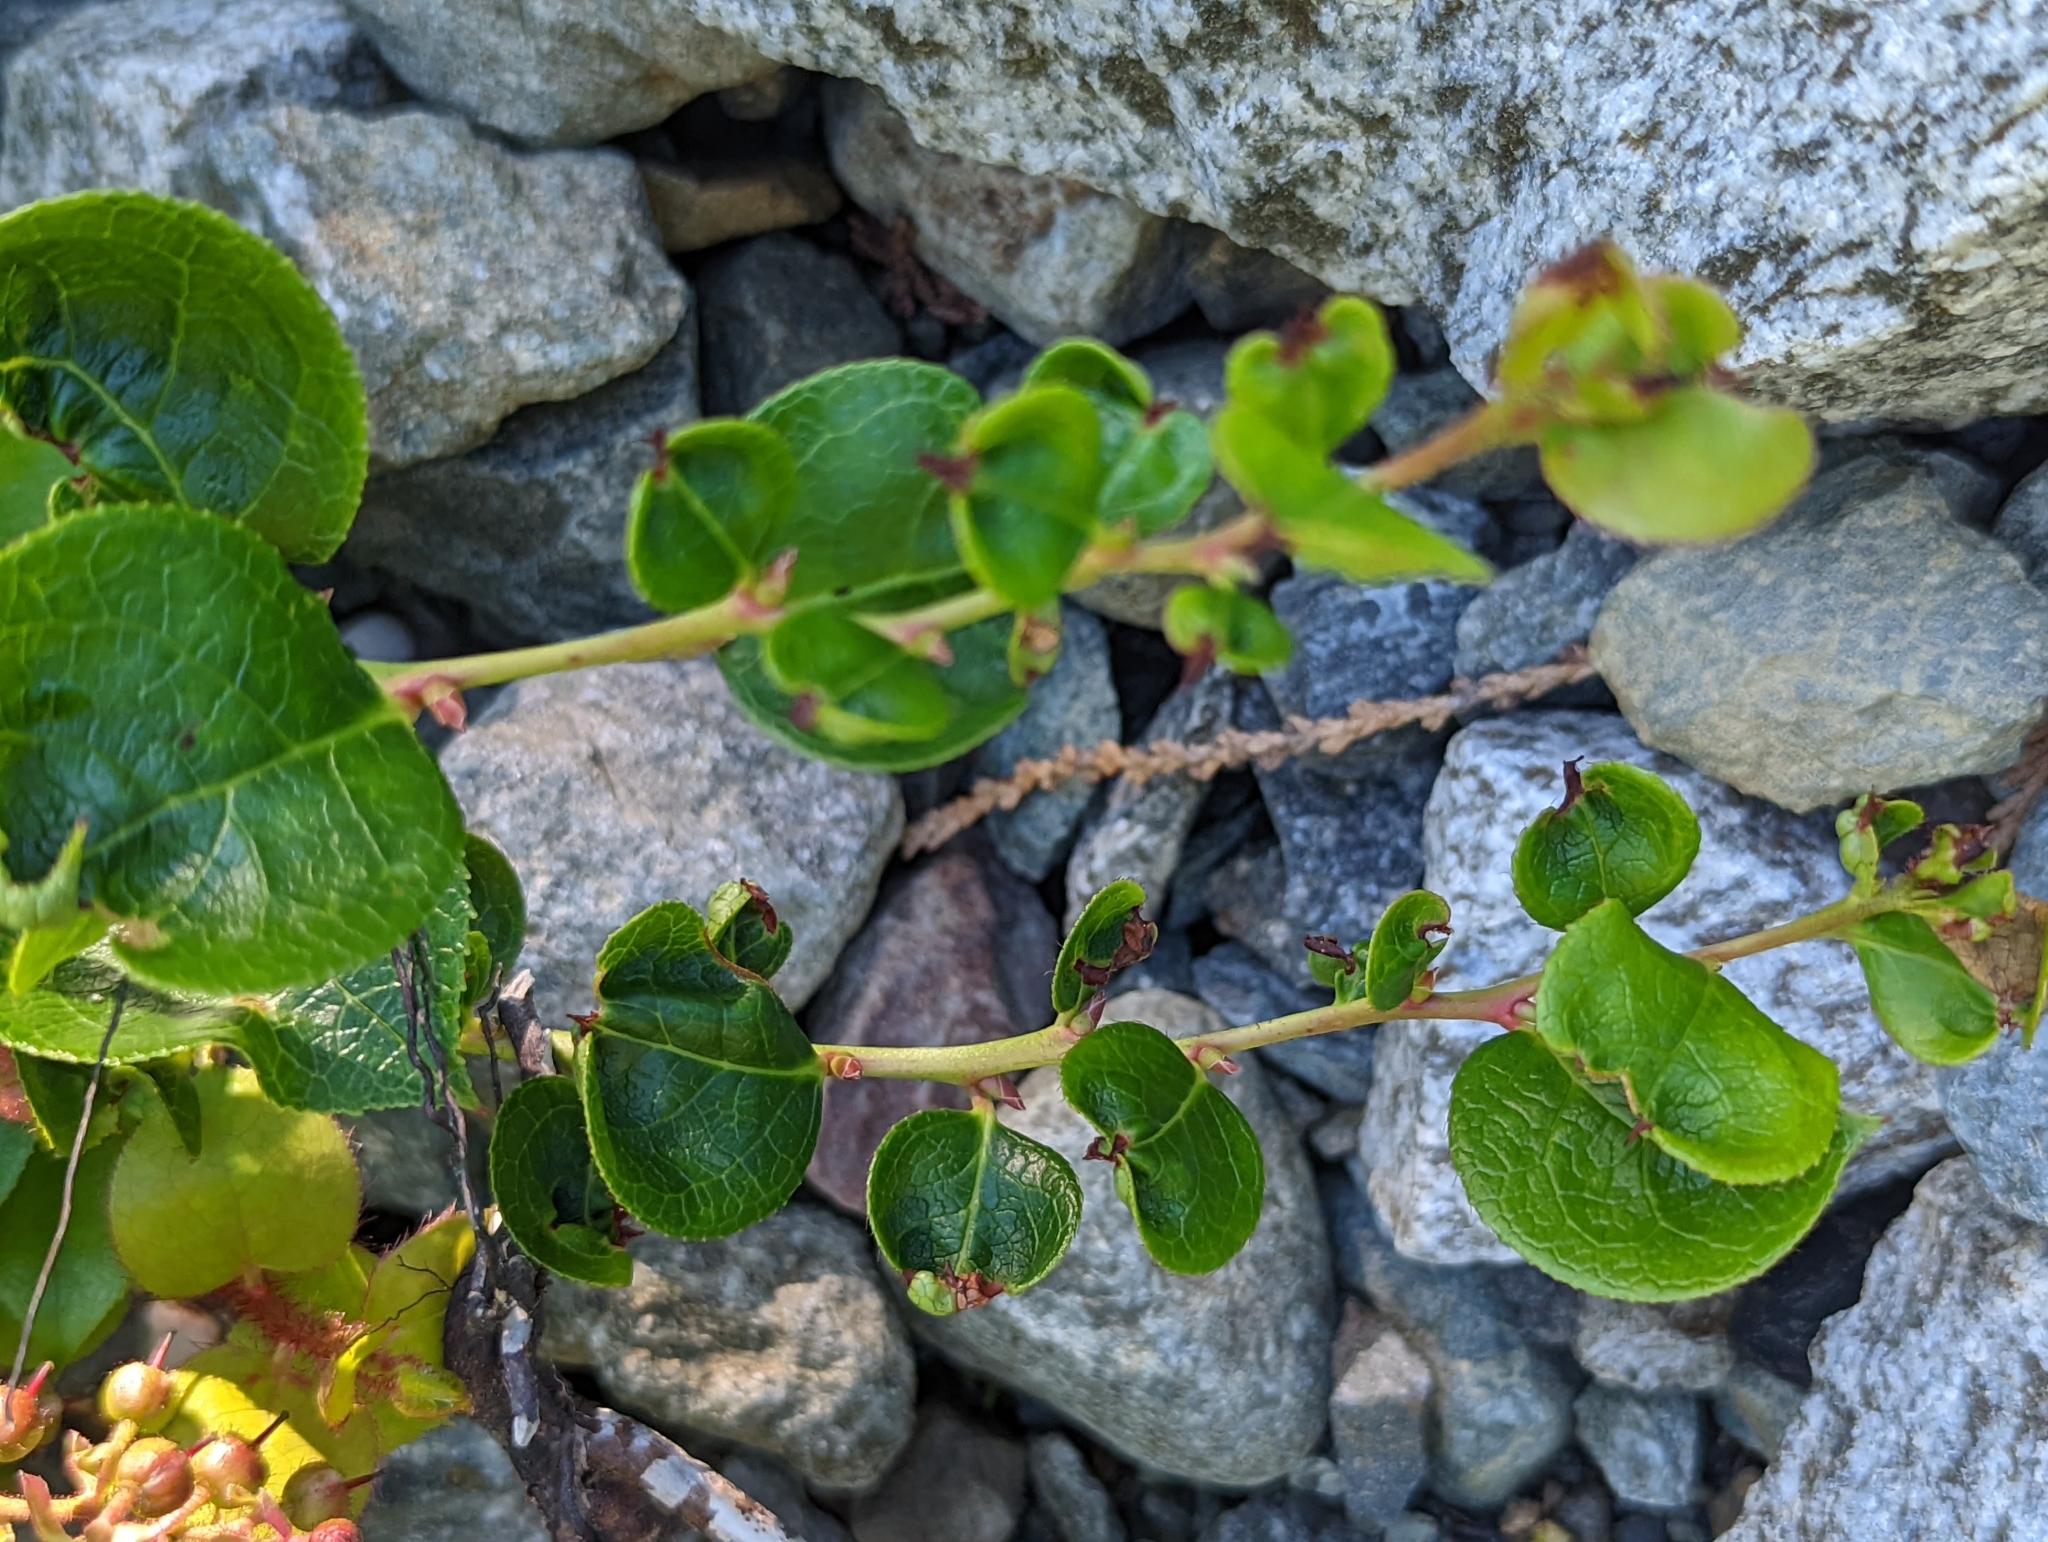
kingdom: Plantae
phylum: Tracheophyta
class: Magnoliopsida
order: Ericales
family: Ericaceae
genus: Gaultheria
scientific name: Gaultheria shallon
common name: Shallon
